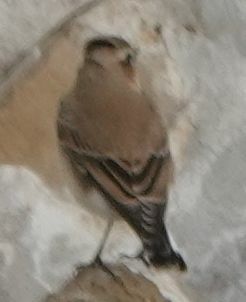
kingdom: Animalia
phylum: Chordata
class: Aves
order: Passeriformes
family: Muscicapidae
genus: Oenanthe
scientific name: Oenanthe oenanthe
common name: Northern wheatear
